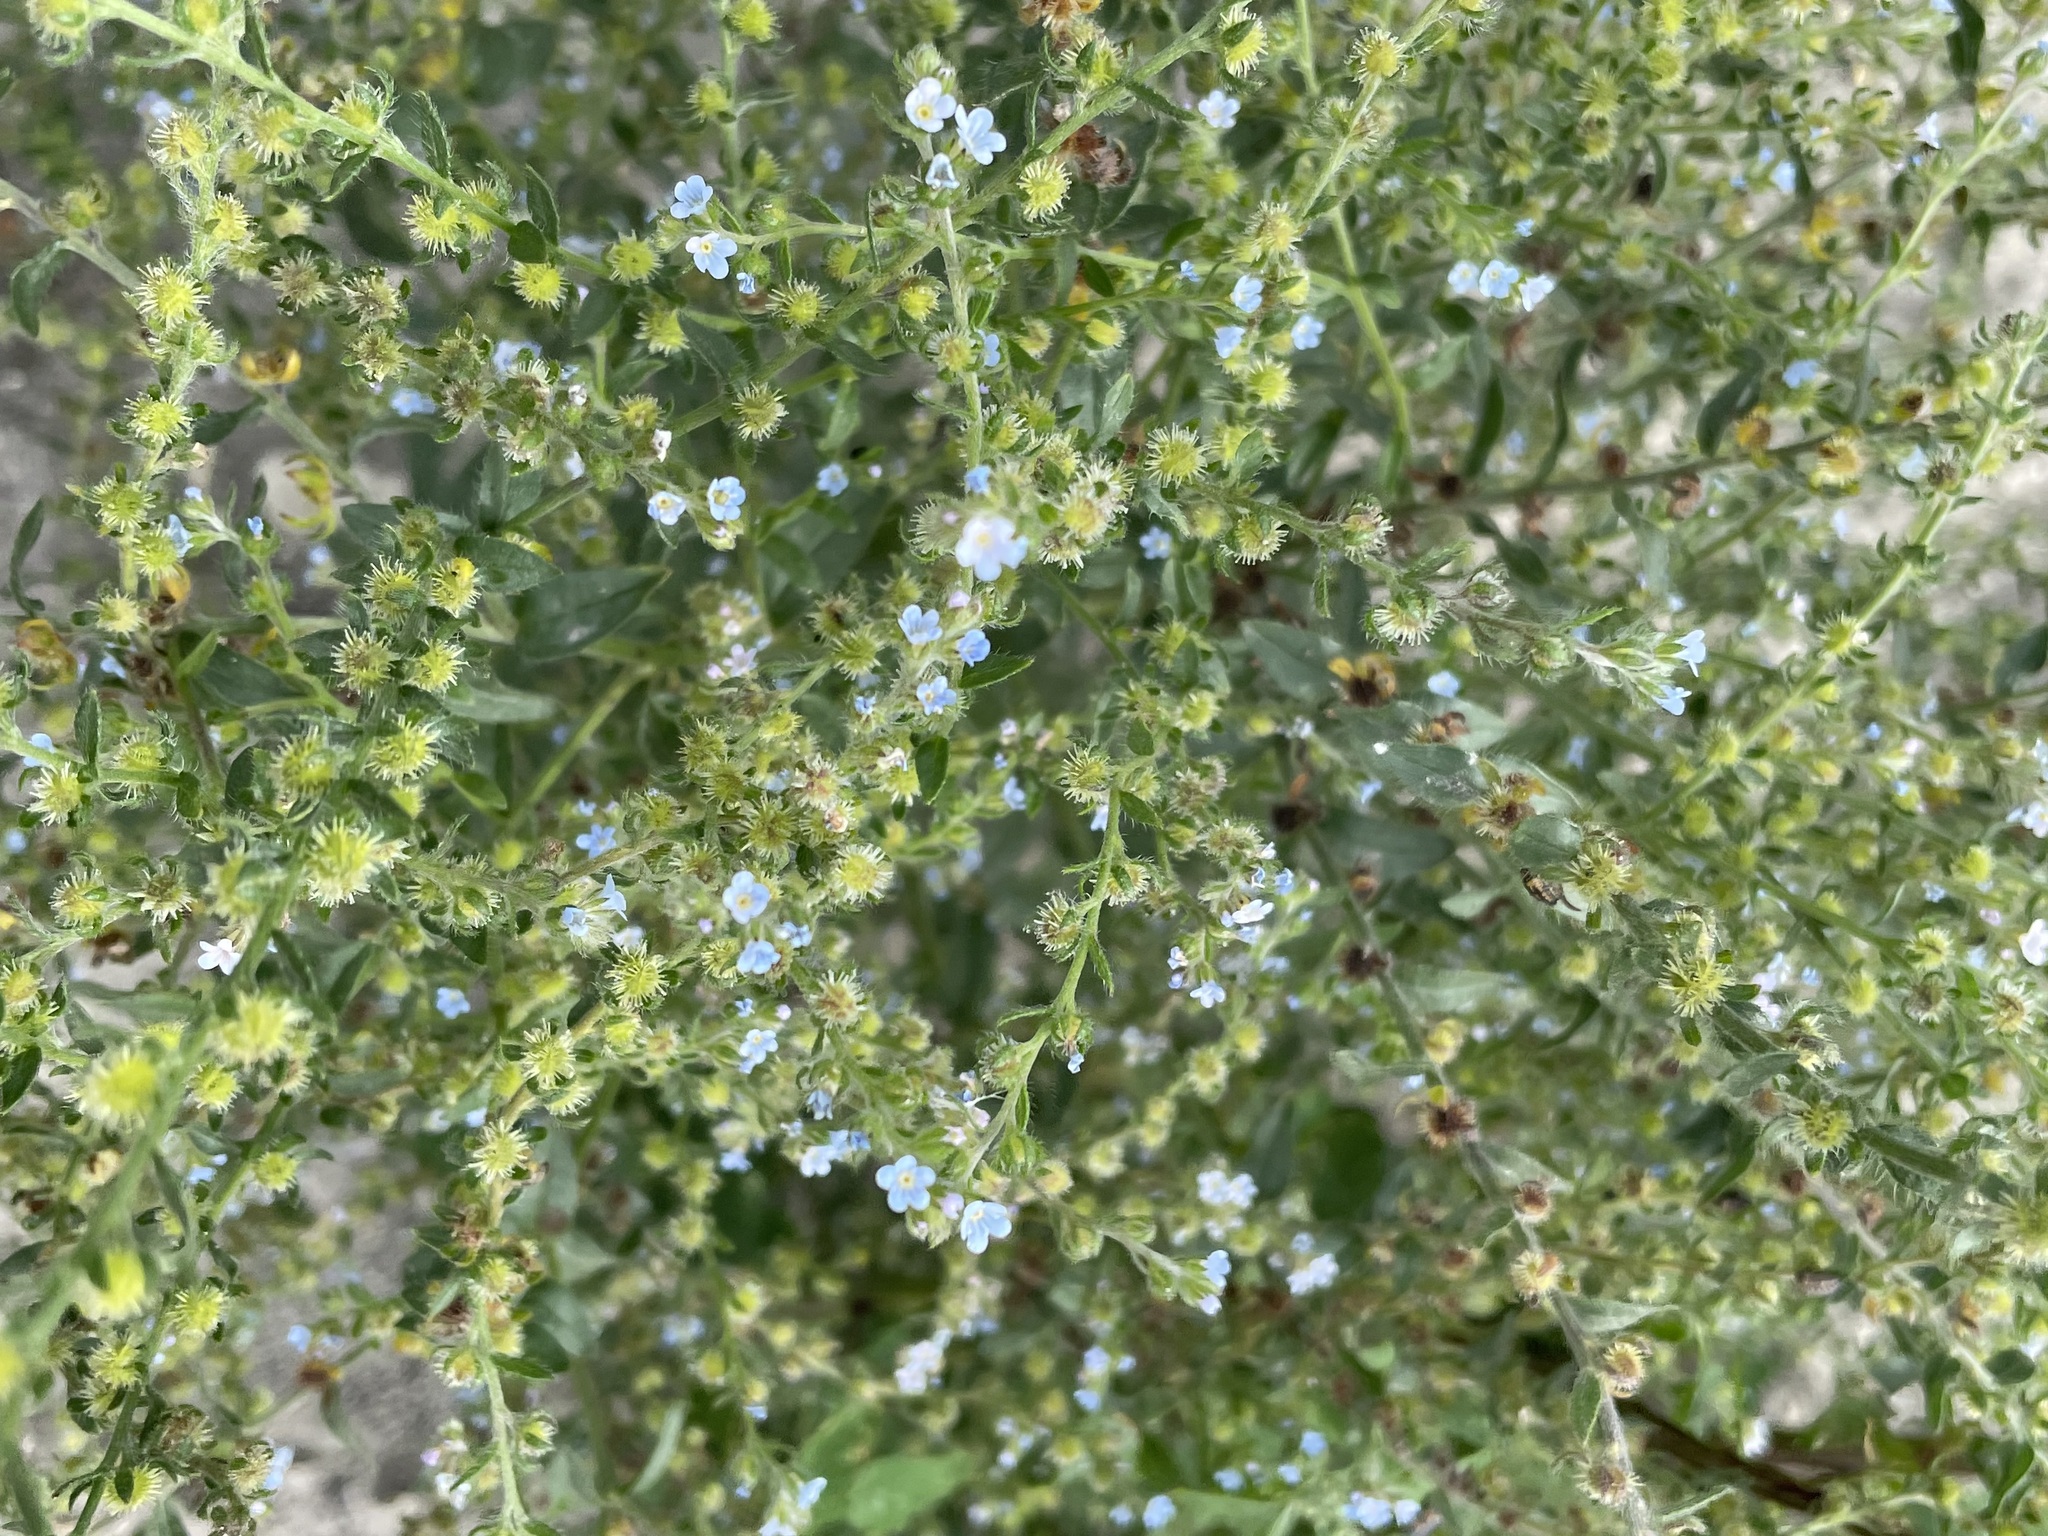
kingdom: Plantae
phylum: Tracheophyta
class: Magnoliopsida
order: Boraginales
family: Boraginaceae
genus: Lappula
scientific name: Lappula squarrosa
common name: European stickseed
